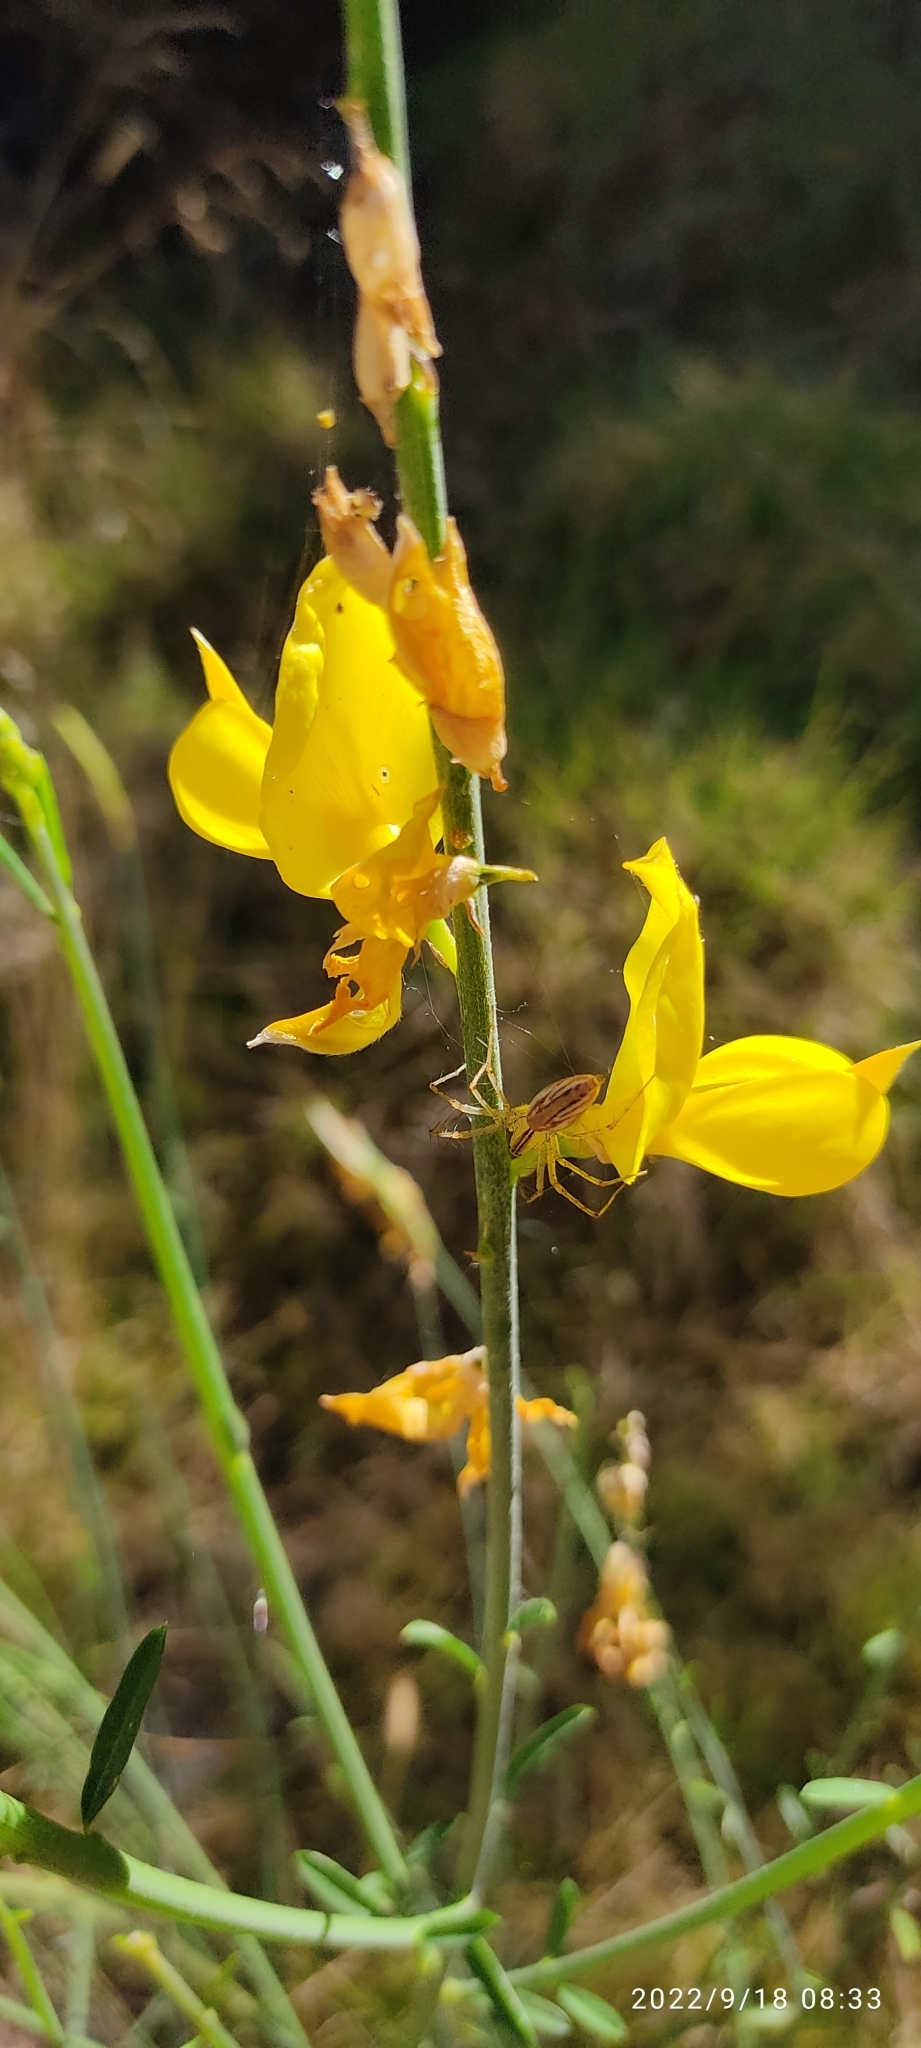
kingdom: Animalia
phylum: Arthropoda
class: Arachnida
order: Araneae
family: Oxyopidae
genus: Peucetia
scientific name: Peucetia rubrolineata
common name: Lynx spiders
